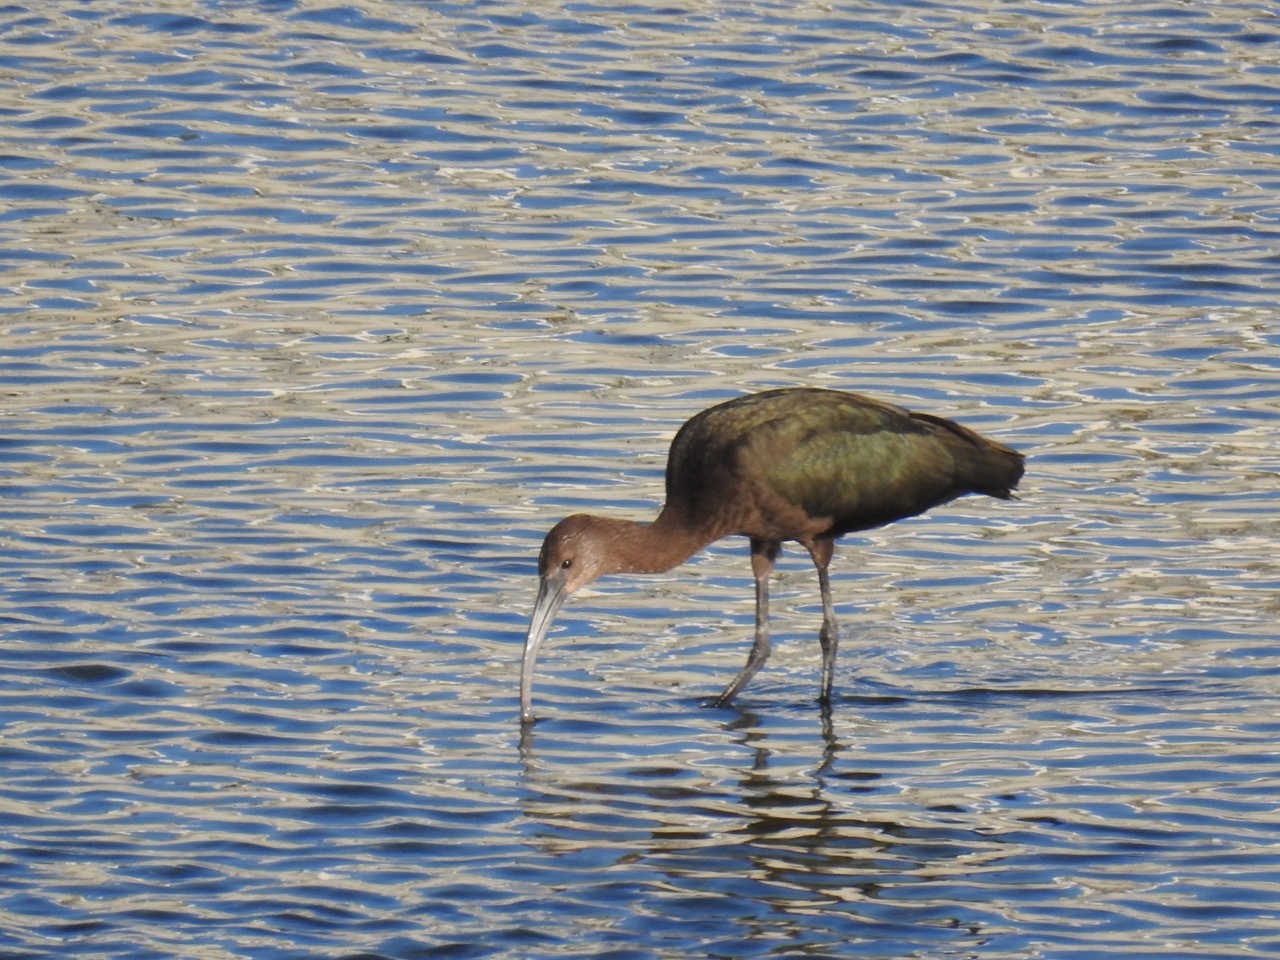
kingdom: Animalia
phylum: Chordata
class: Aves
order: Pelecaniformes
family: Threskiornithidae
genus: Plegadis
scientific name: Plegadis chihi
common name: White-faced ibis
